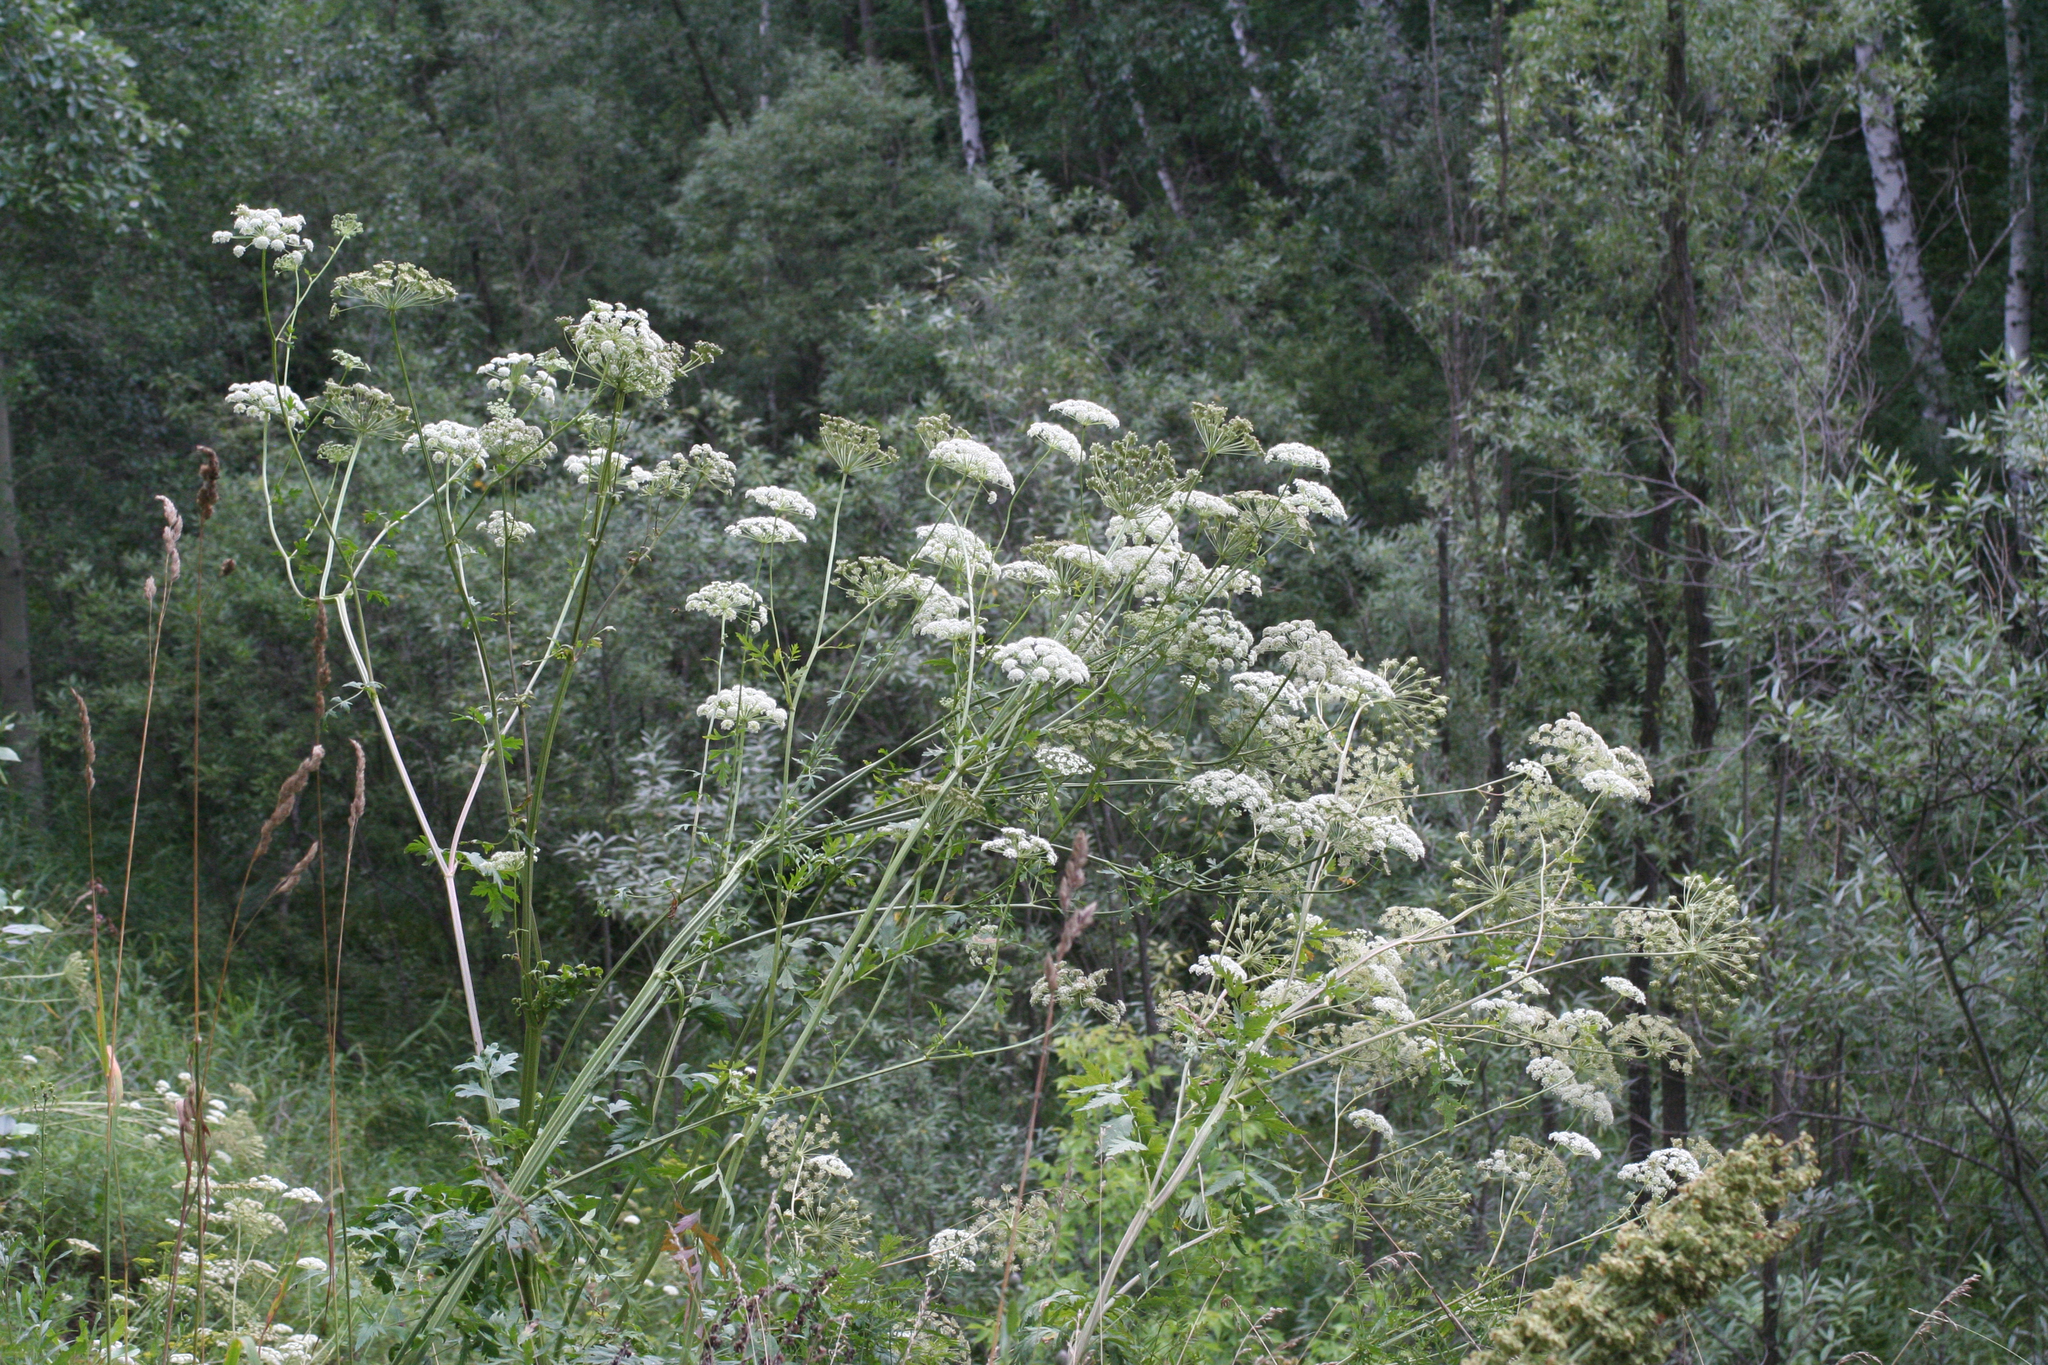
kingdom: Plantae
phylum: Tracheophyta
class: Magnoliopsida
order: Apiales
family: Apiaceae
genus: Seseli
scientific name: Seseli libanotis
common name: Mooncarrot
